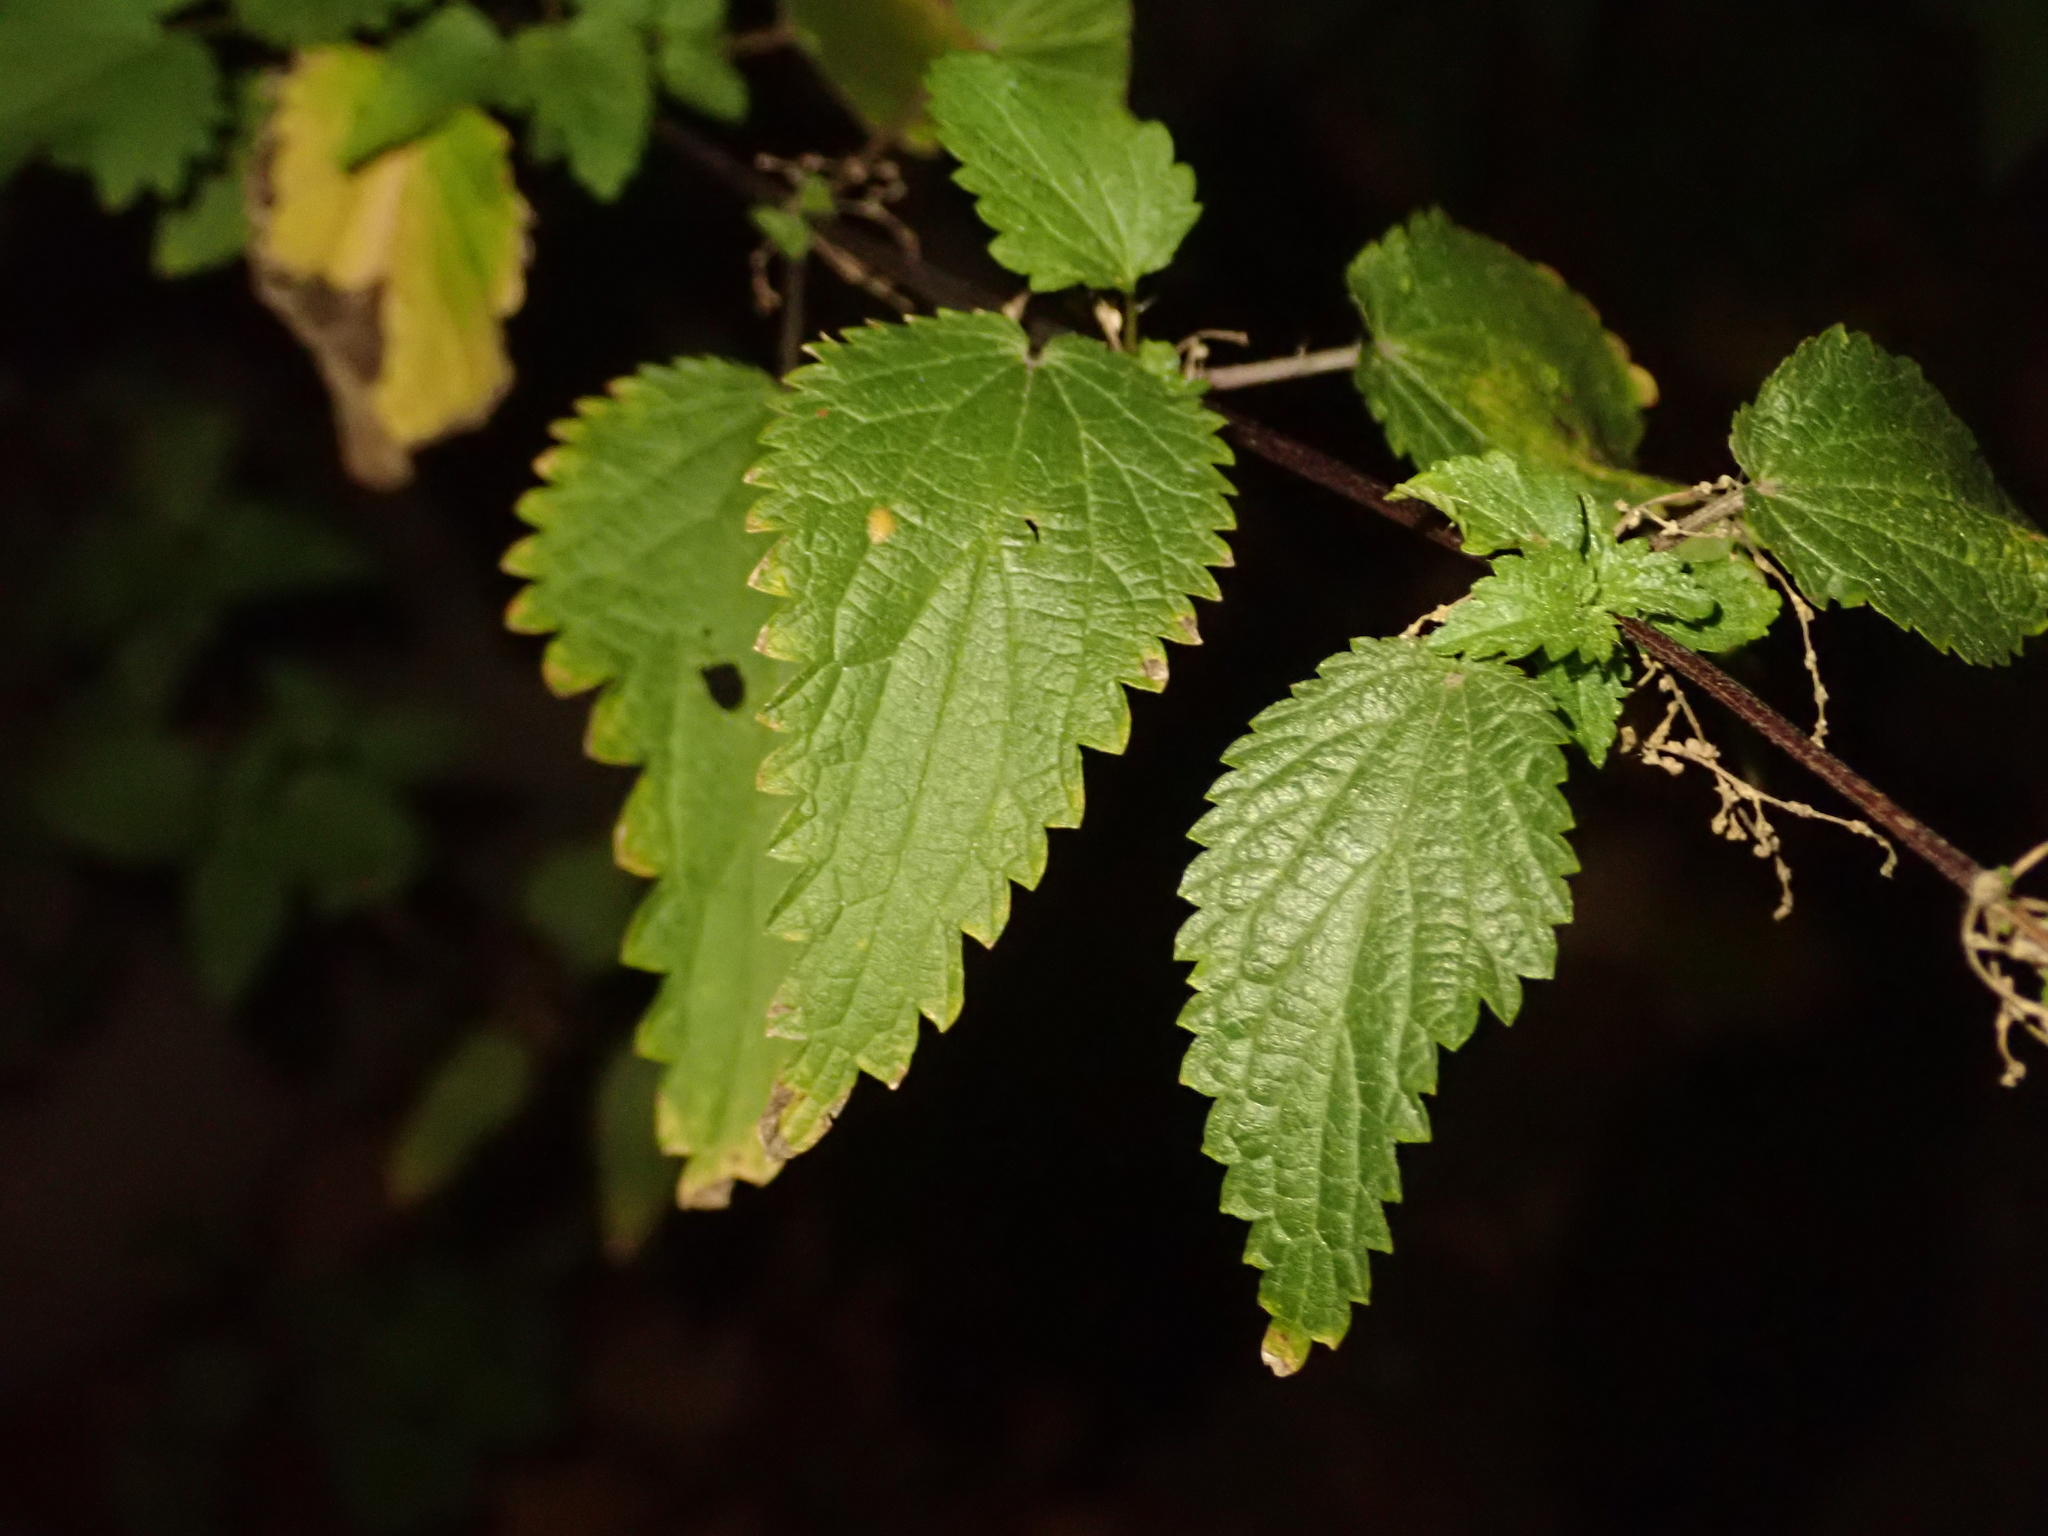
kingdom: Plantae
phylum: Tracheophyta
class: Magnoliopsida
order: Rosales
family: Urticaceae
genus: Urtica
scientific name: Urtica dioica
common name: Common nettle
